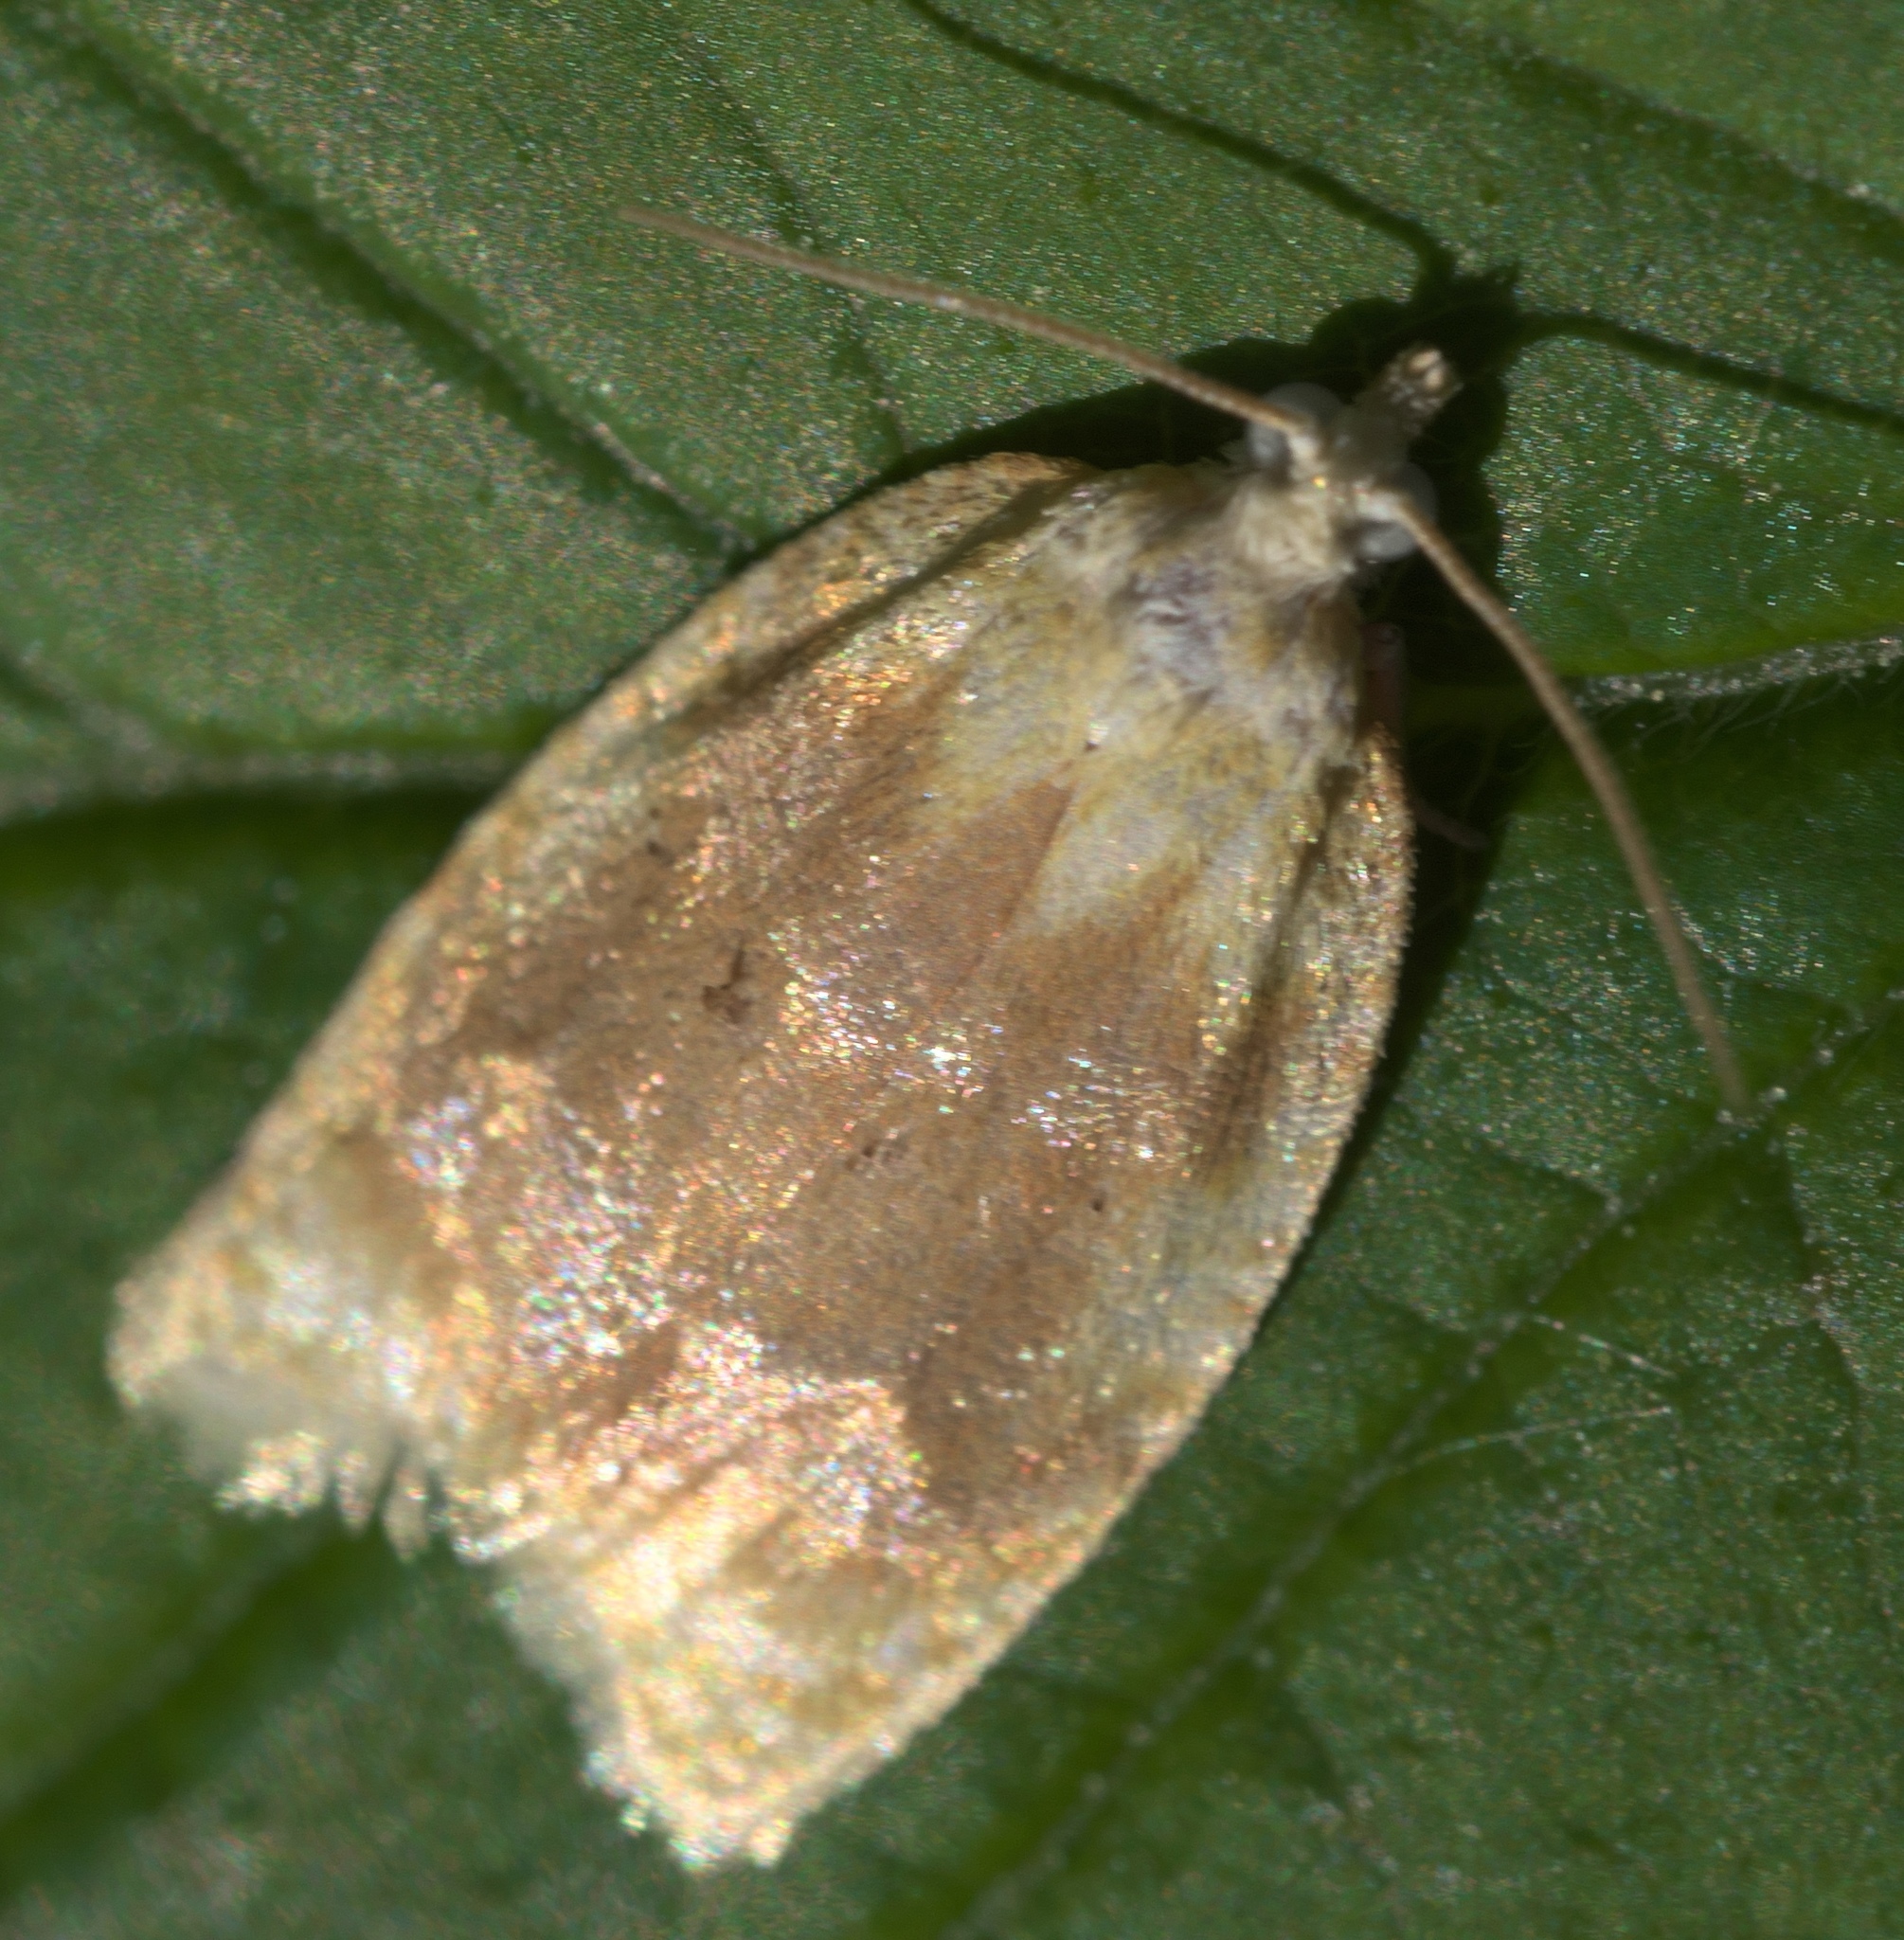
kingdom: Animalia
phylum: Arthropoda
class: Insecta
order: Lepidoptera
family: Tortricidae
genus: Acleris
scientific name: Acleris semipurpurana
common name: Oak leaftier moth
